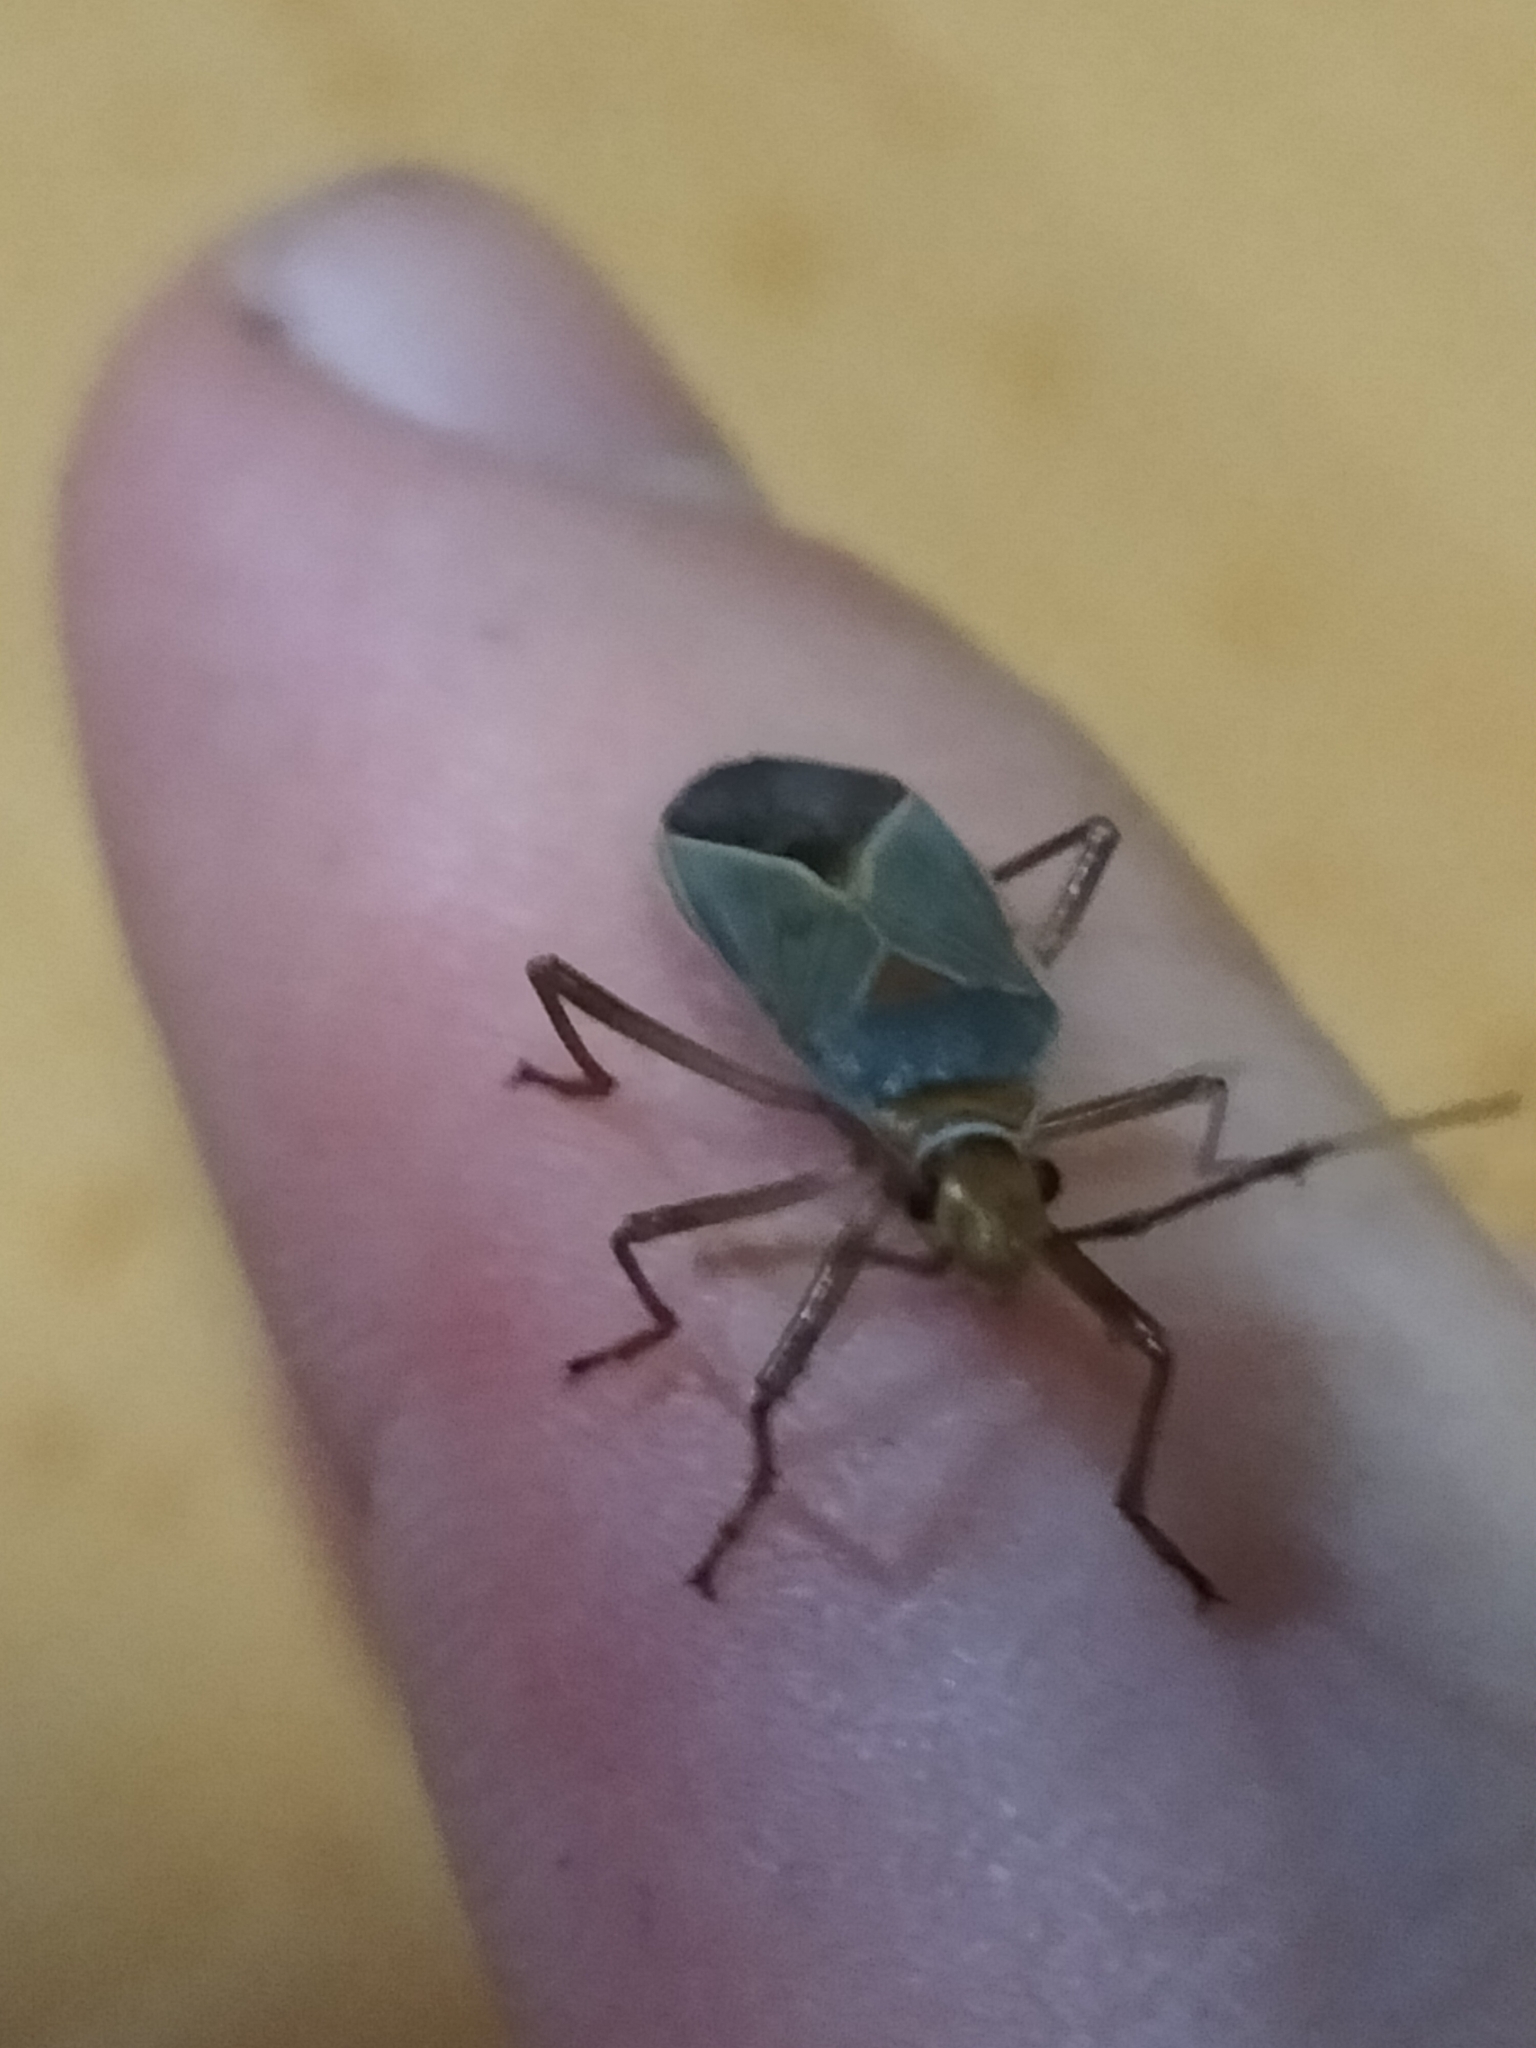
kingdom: Animalia
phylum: Arthropoda
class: Insecta
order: Hemiptera
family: Pyrrhocoridae
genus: Dysdercus
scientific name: Dysdercus argillaceus
